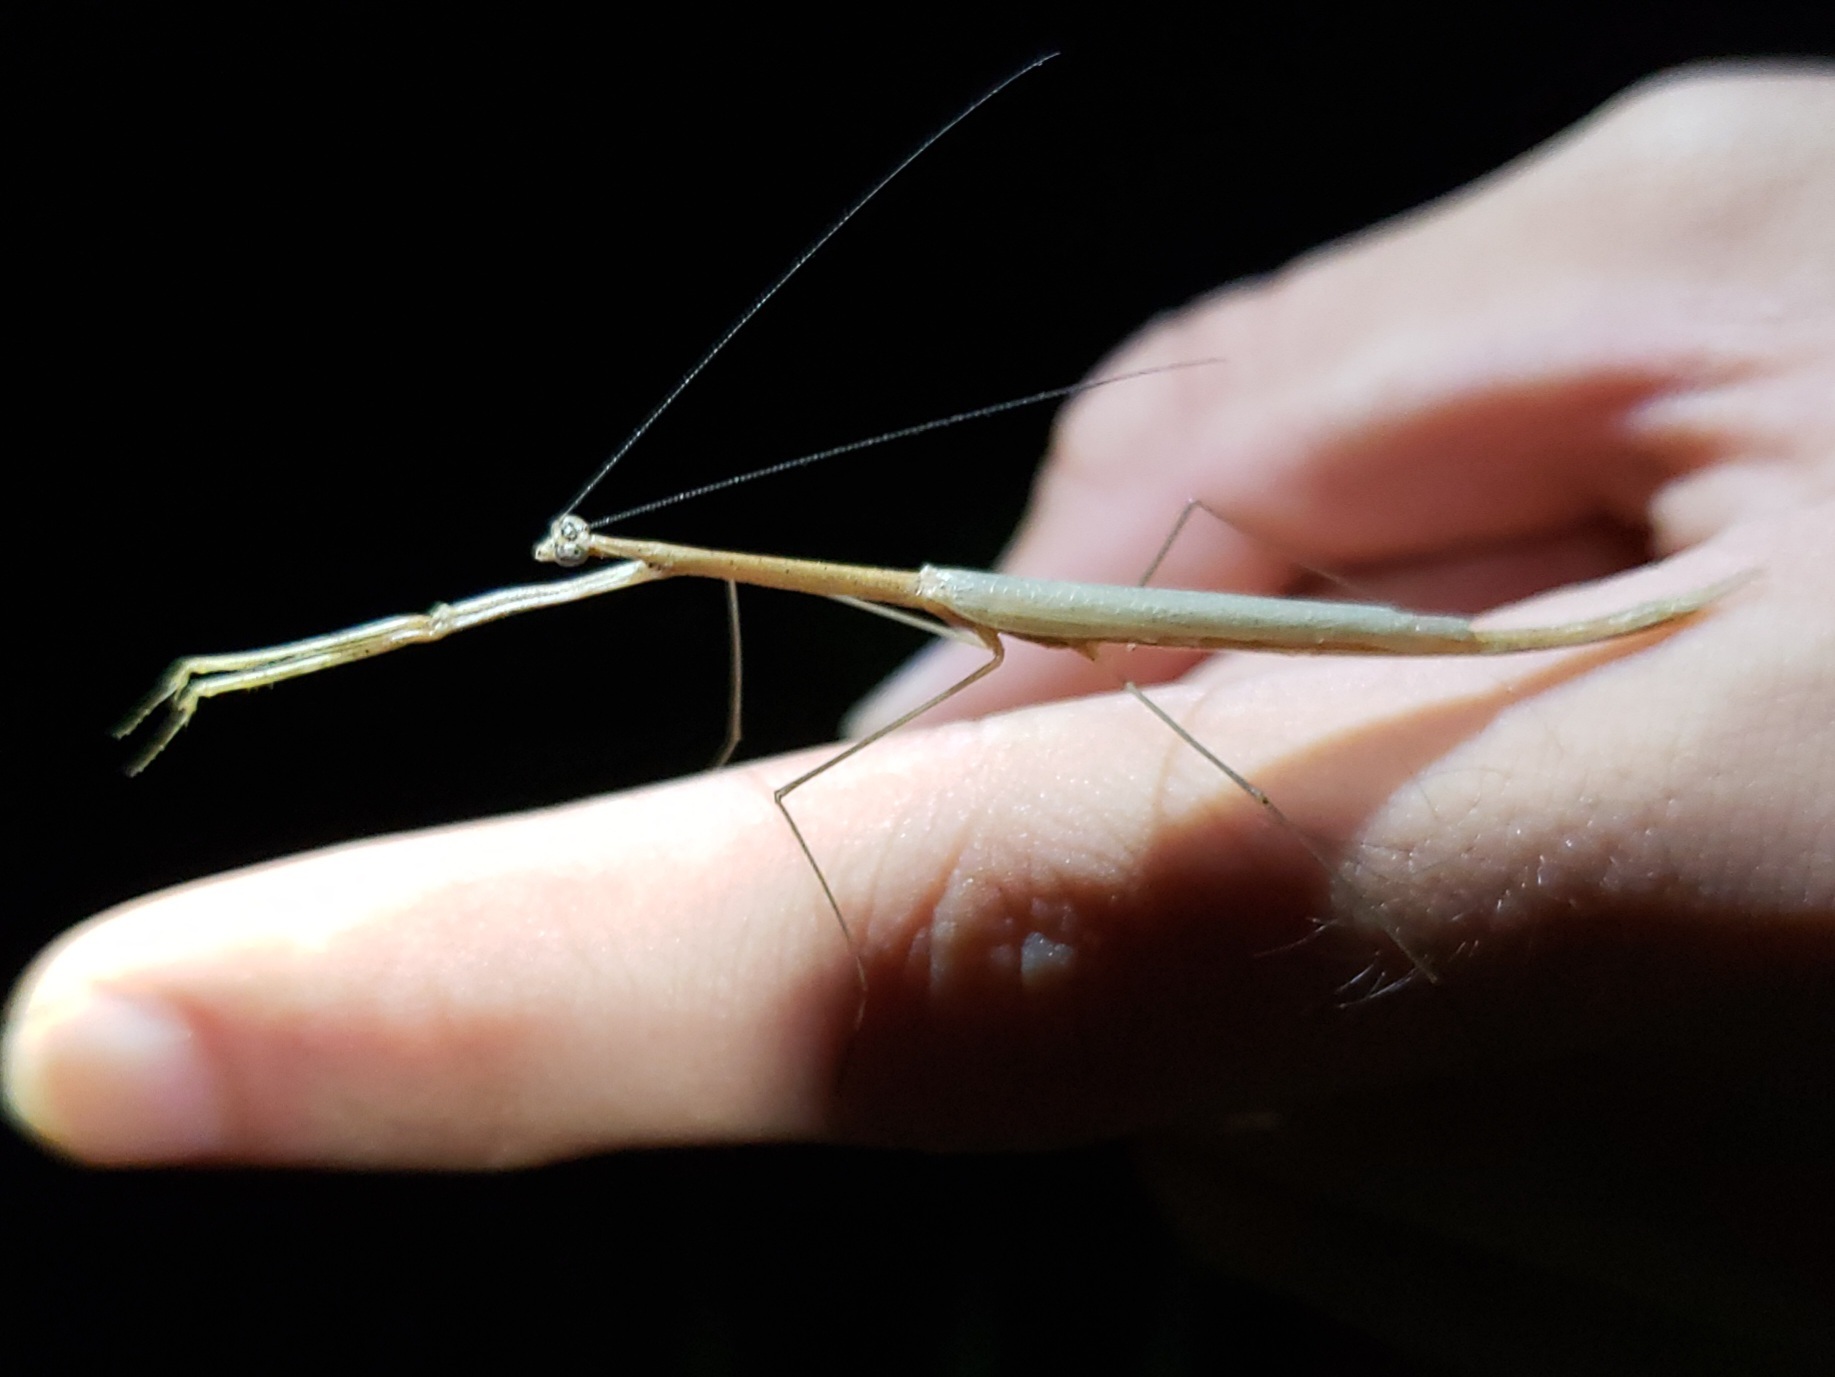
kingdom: Animalia
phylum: Arthropoda
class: Insecta
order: Mantodea
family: Thespidae
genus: Thesprotia
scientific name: Thesprotia graminis
